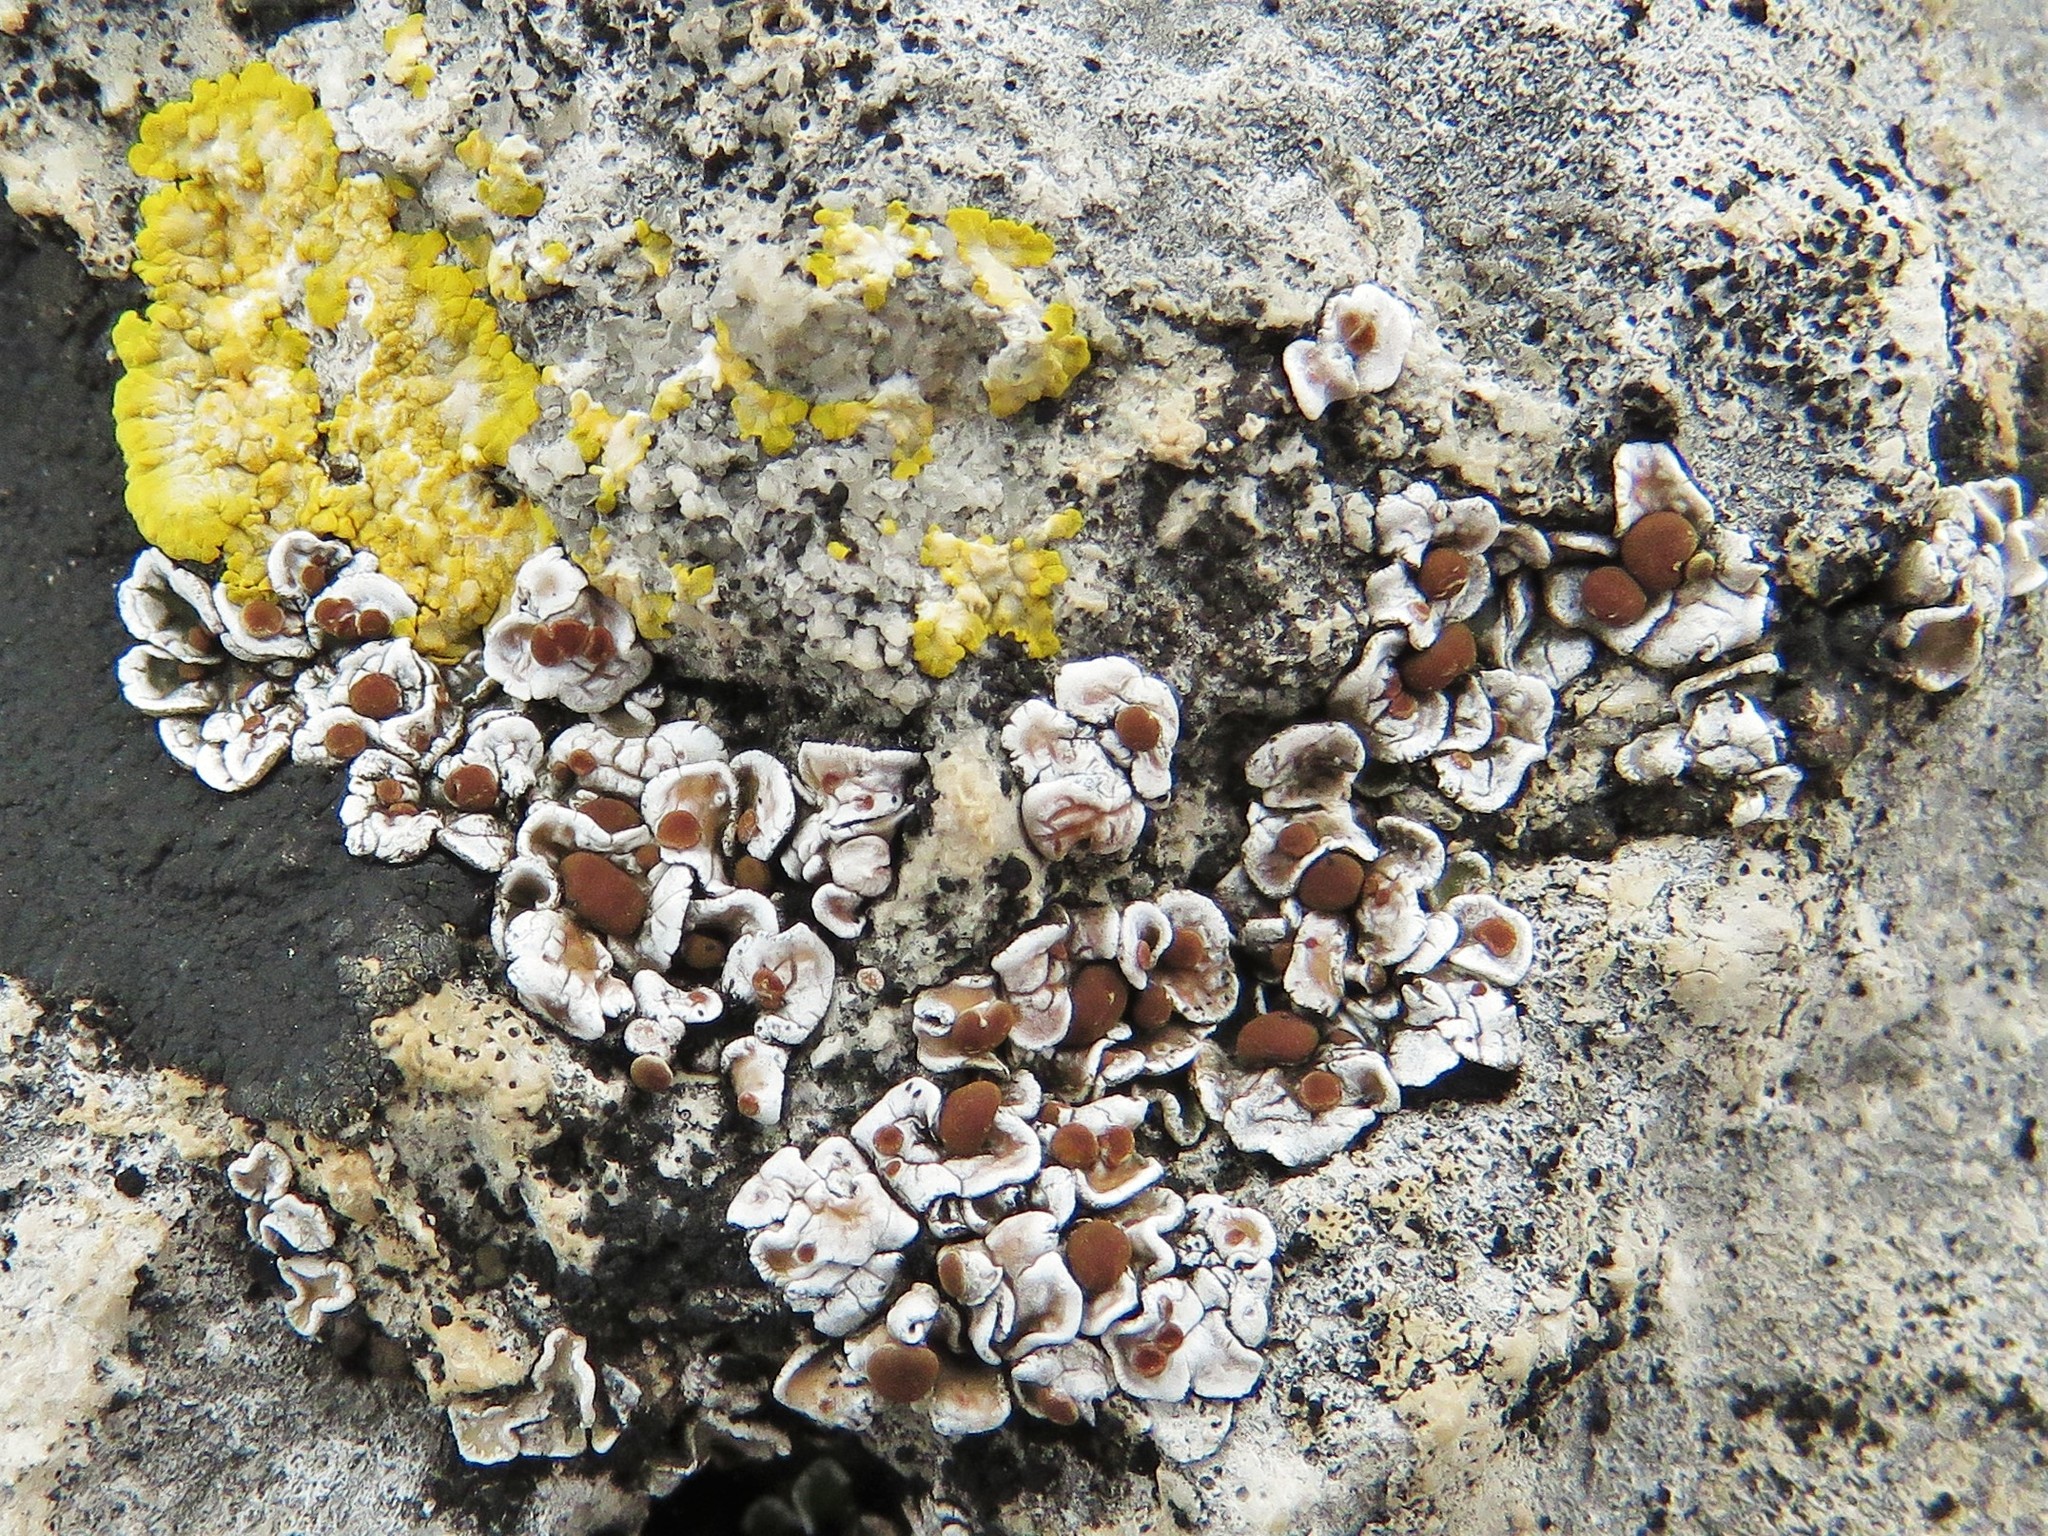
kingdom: Fungi
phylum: Ascomycota
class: Lecanoromycetes
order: Lecanorales
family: Psoraceae
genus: Psora
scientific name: Psora crenata
